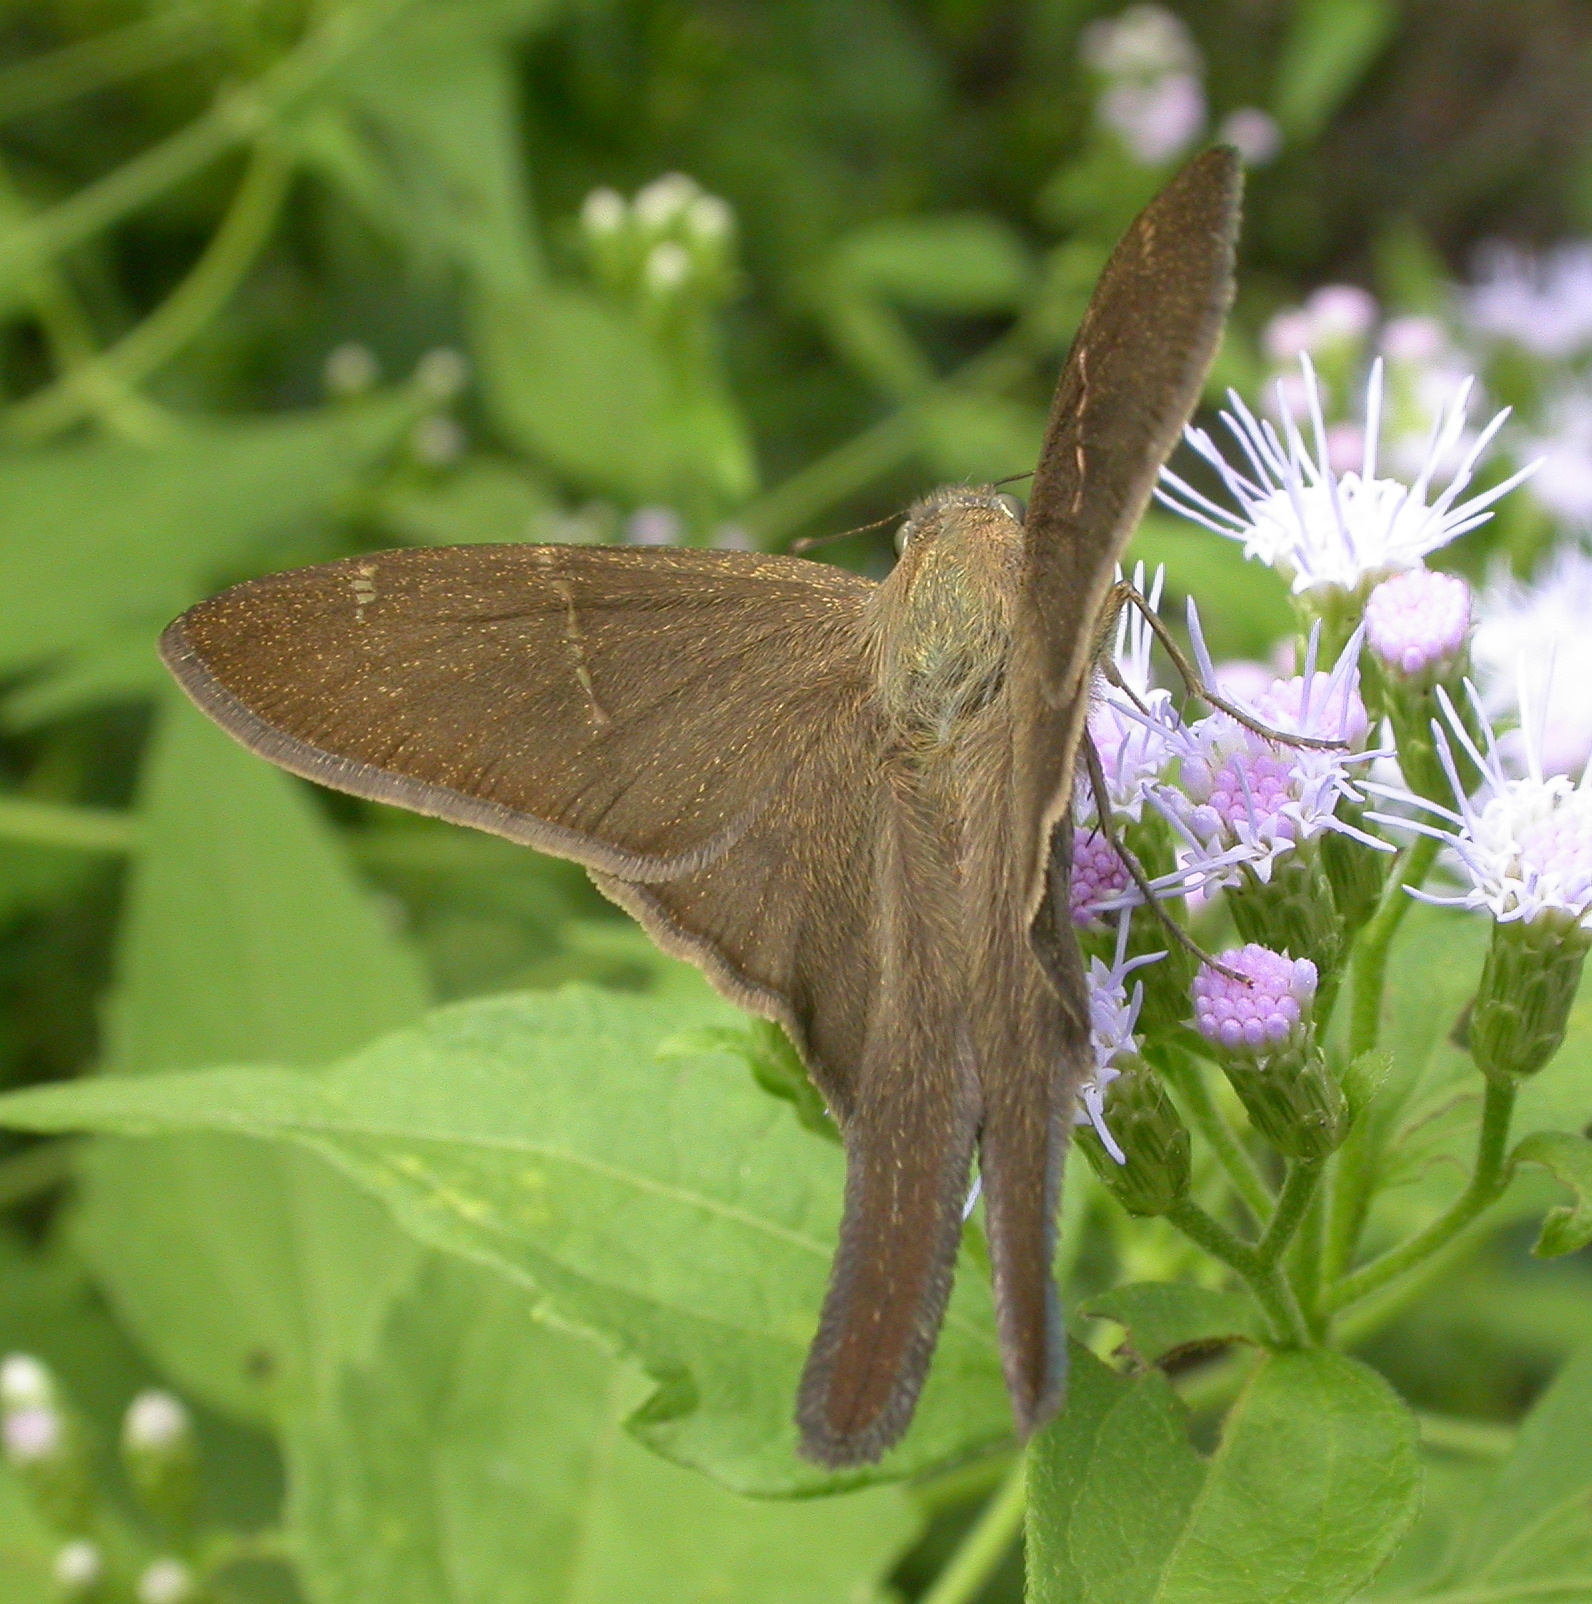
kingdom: Animalia
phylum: Arthropoda
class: Insecta
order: Lepidoptera
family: Hesperiidae
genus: Urbanus
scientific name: Urbanus procne
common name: Brown longtail
